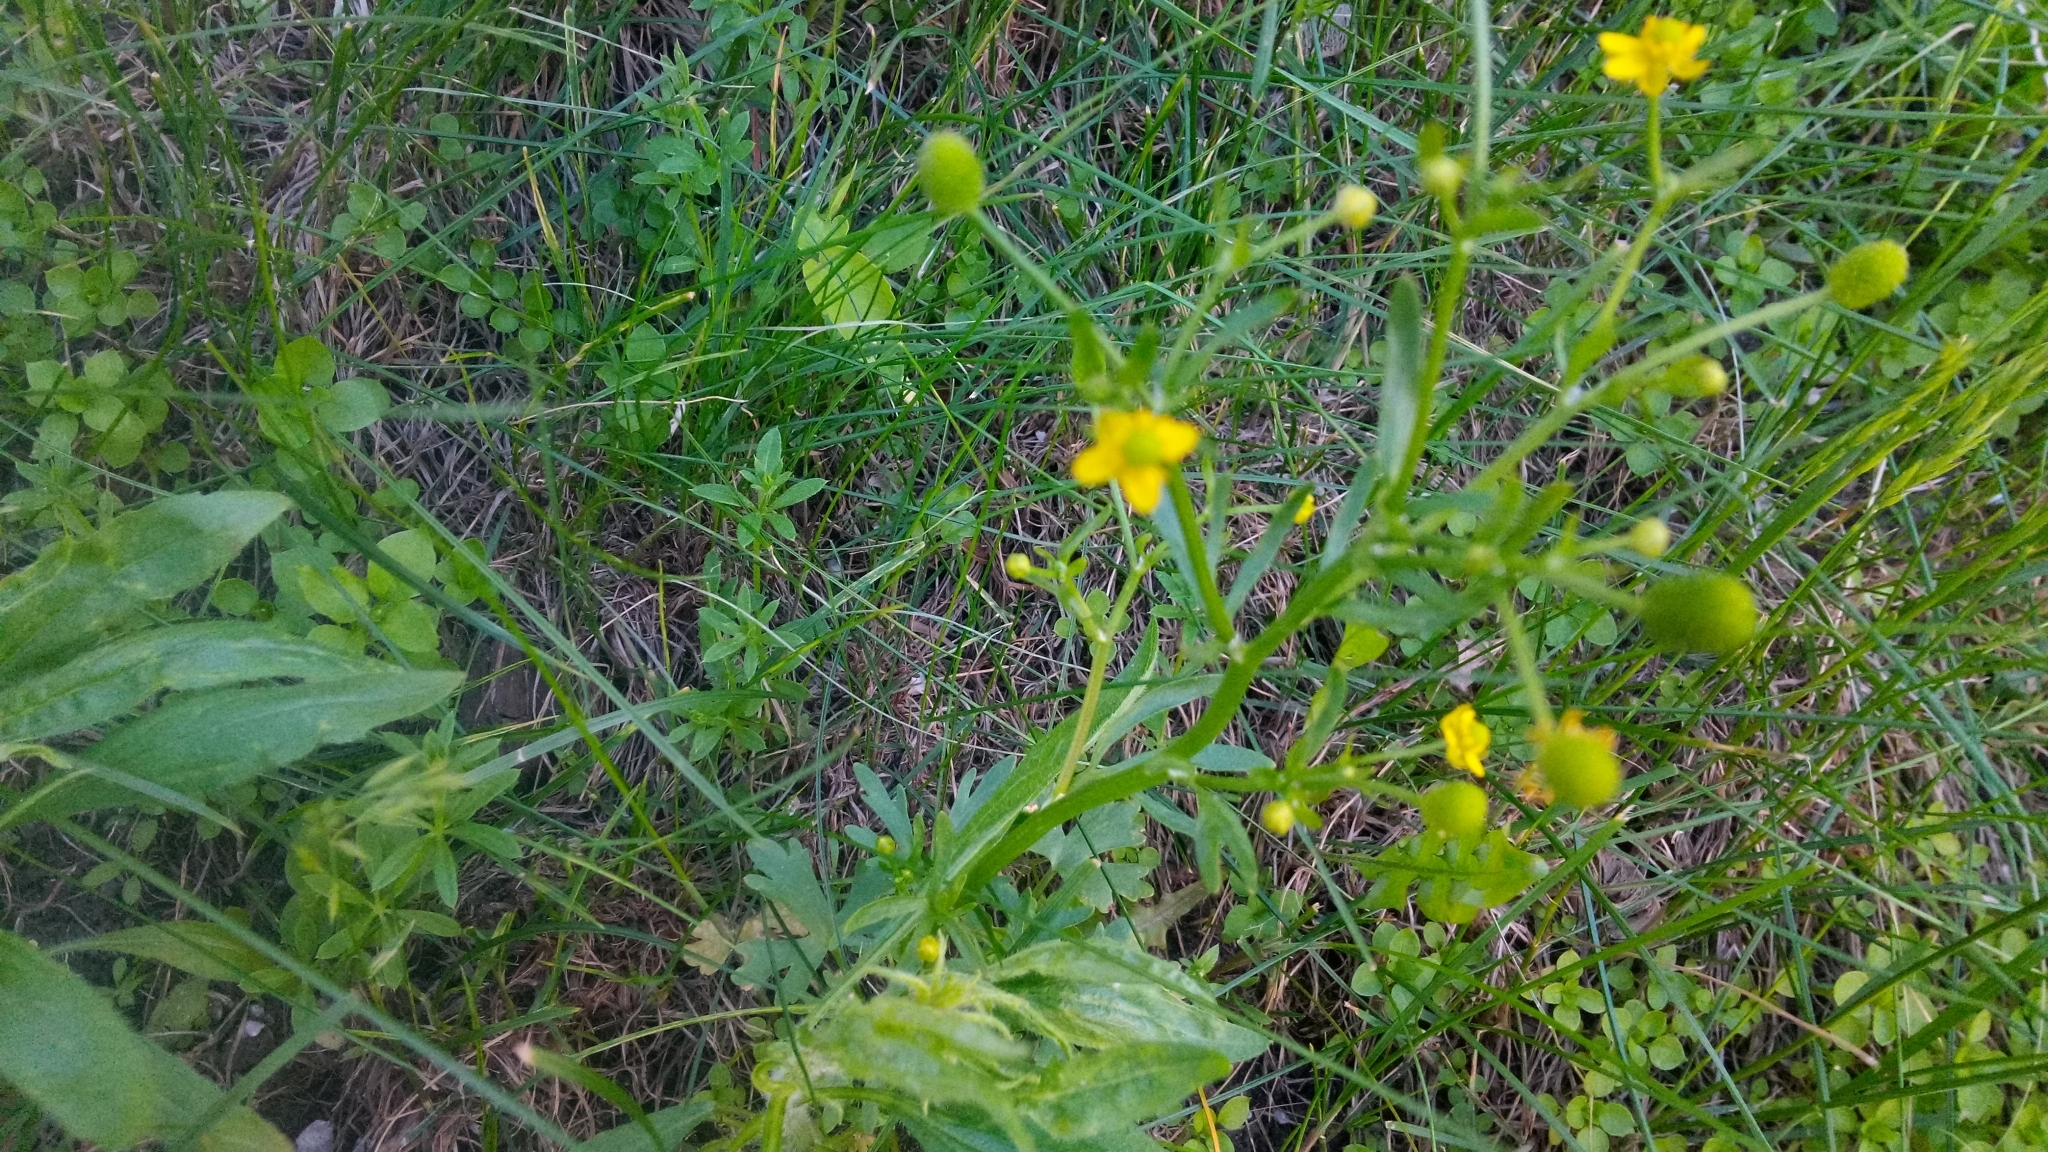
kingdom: Plantae
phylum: Tracheophyta
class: Magnoliopsida
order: Ranunculales
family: Ranunculaceae
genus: Ranunculus
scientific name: Ranunculus sceleratus
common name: Celery-leaved buttercup
